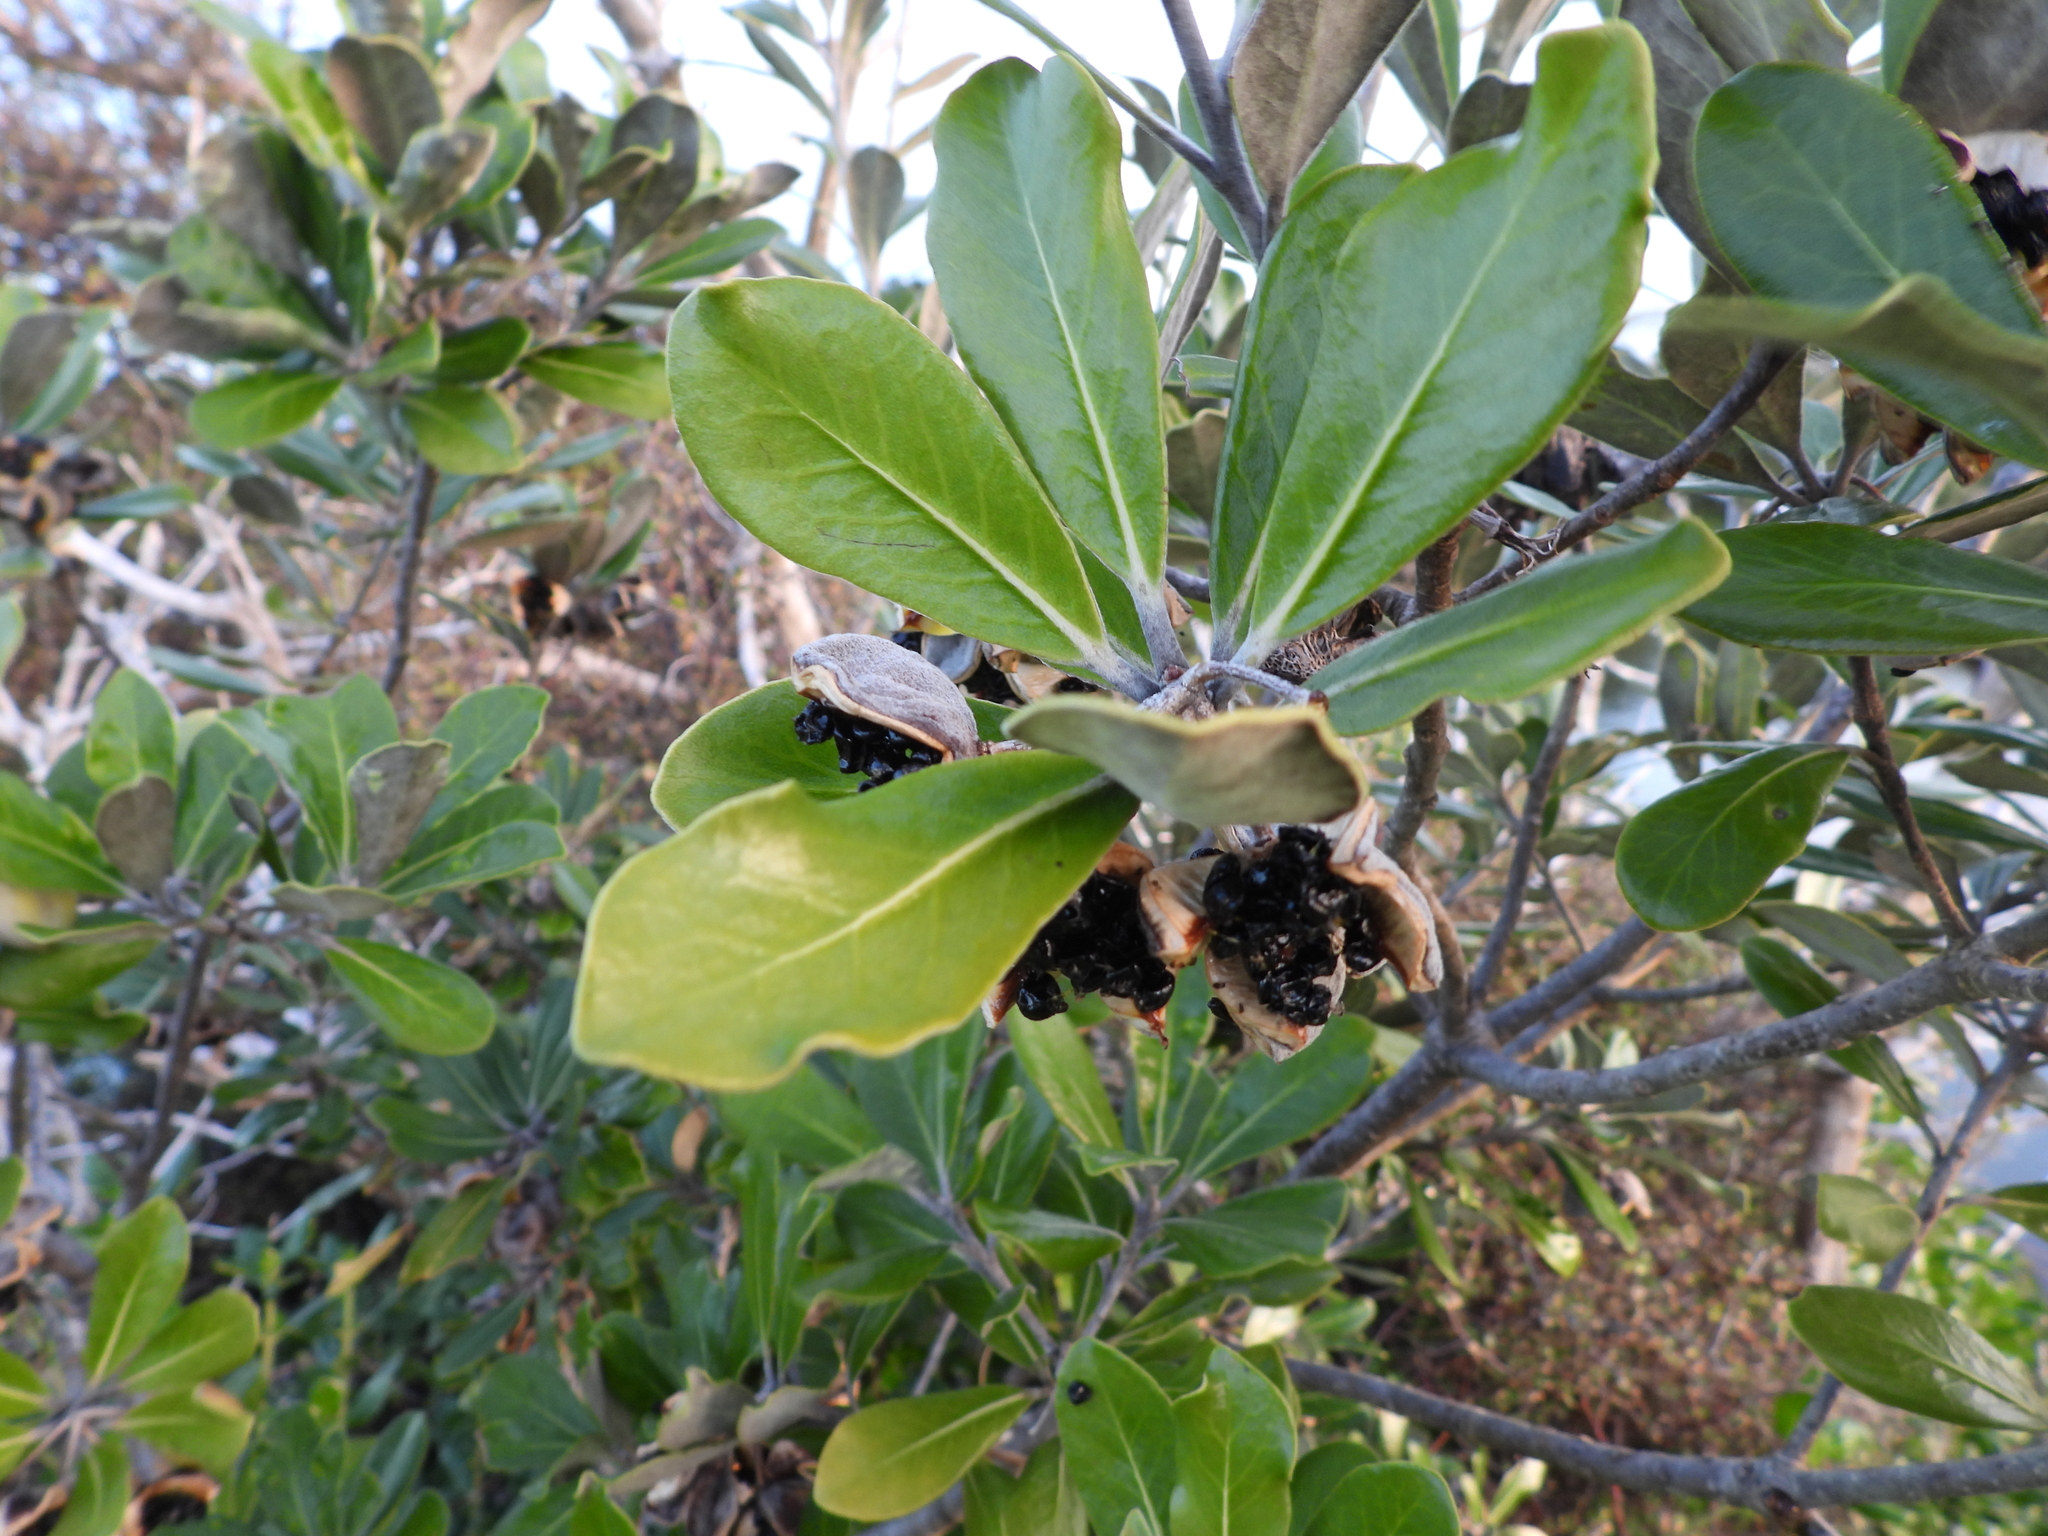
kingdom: Plantae
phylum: Tracheophyta
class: Magnoliopsida
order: Apiales
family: Pittosporaceae
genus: Pittosporum
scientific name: Pittosporum crassifolium
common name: Karo
